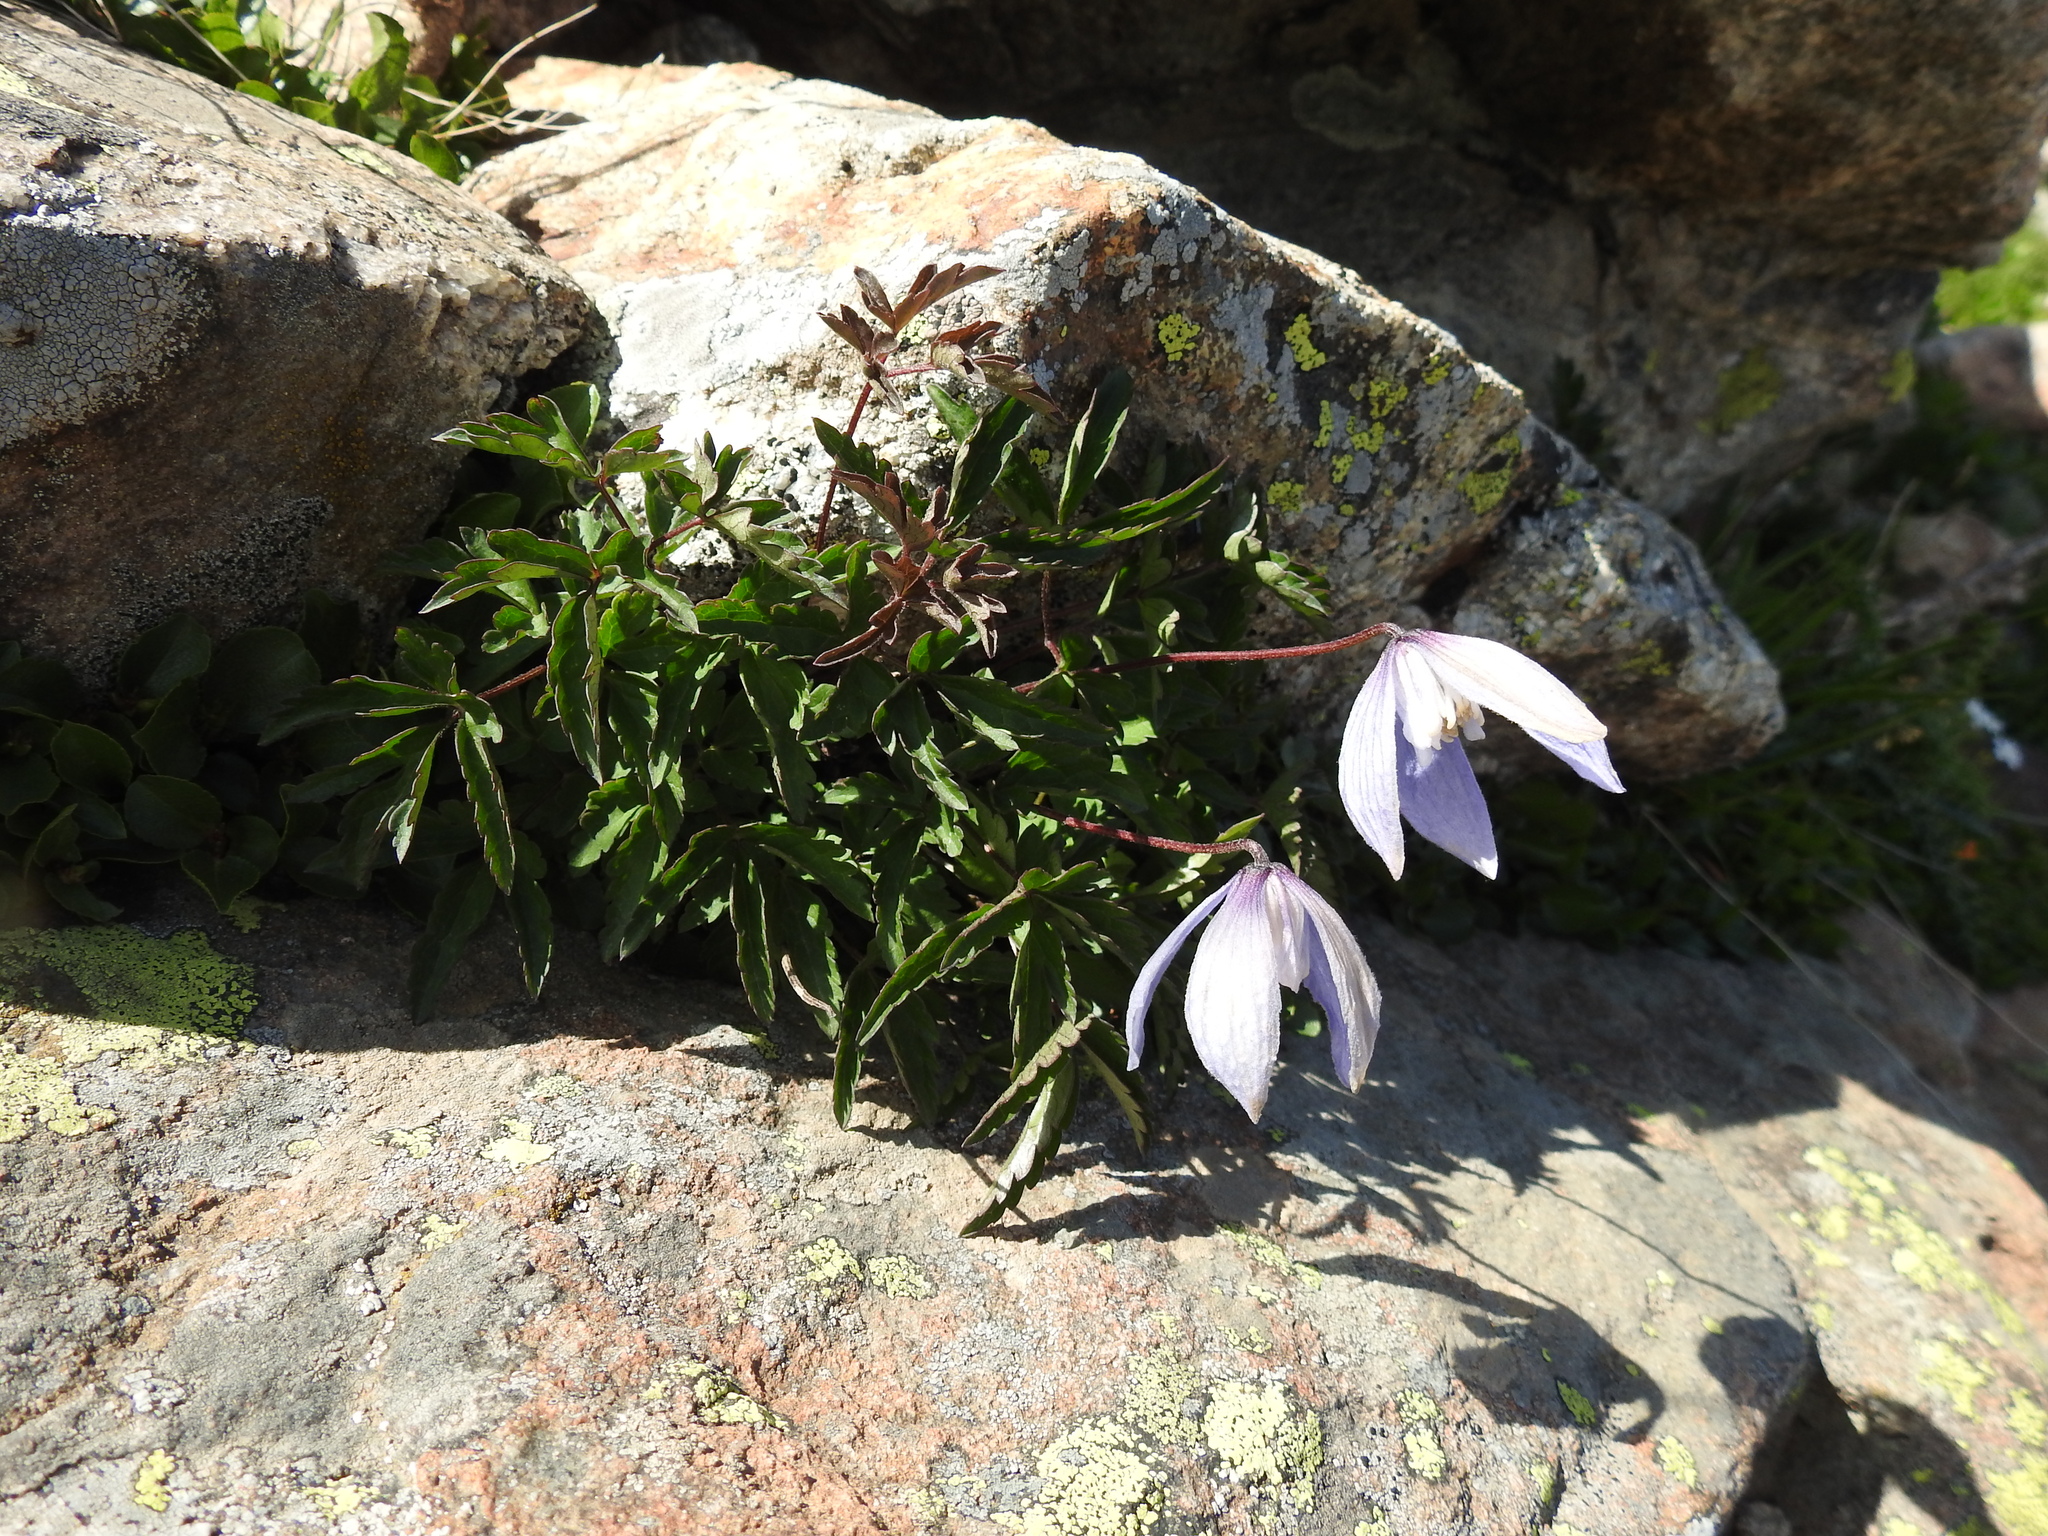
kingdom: Plantae
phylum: Tracheophyta
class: Magnoliopsida
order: Ranunculales
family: Ranunculaceae
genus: Clematis
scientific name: Clematis alpina
